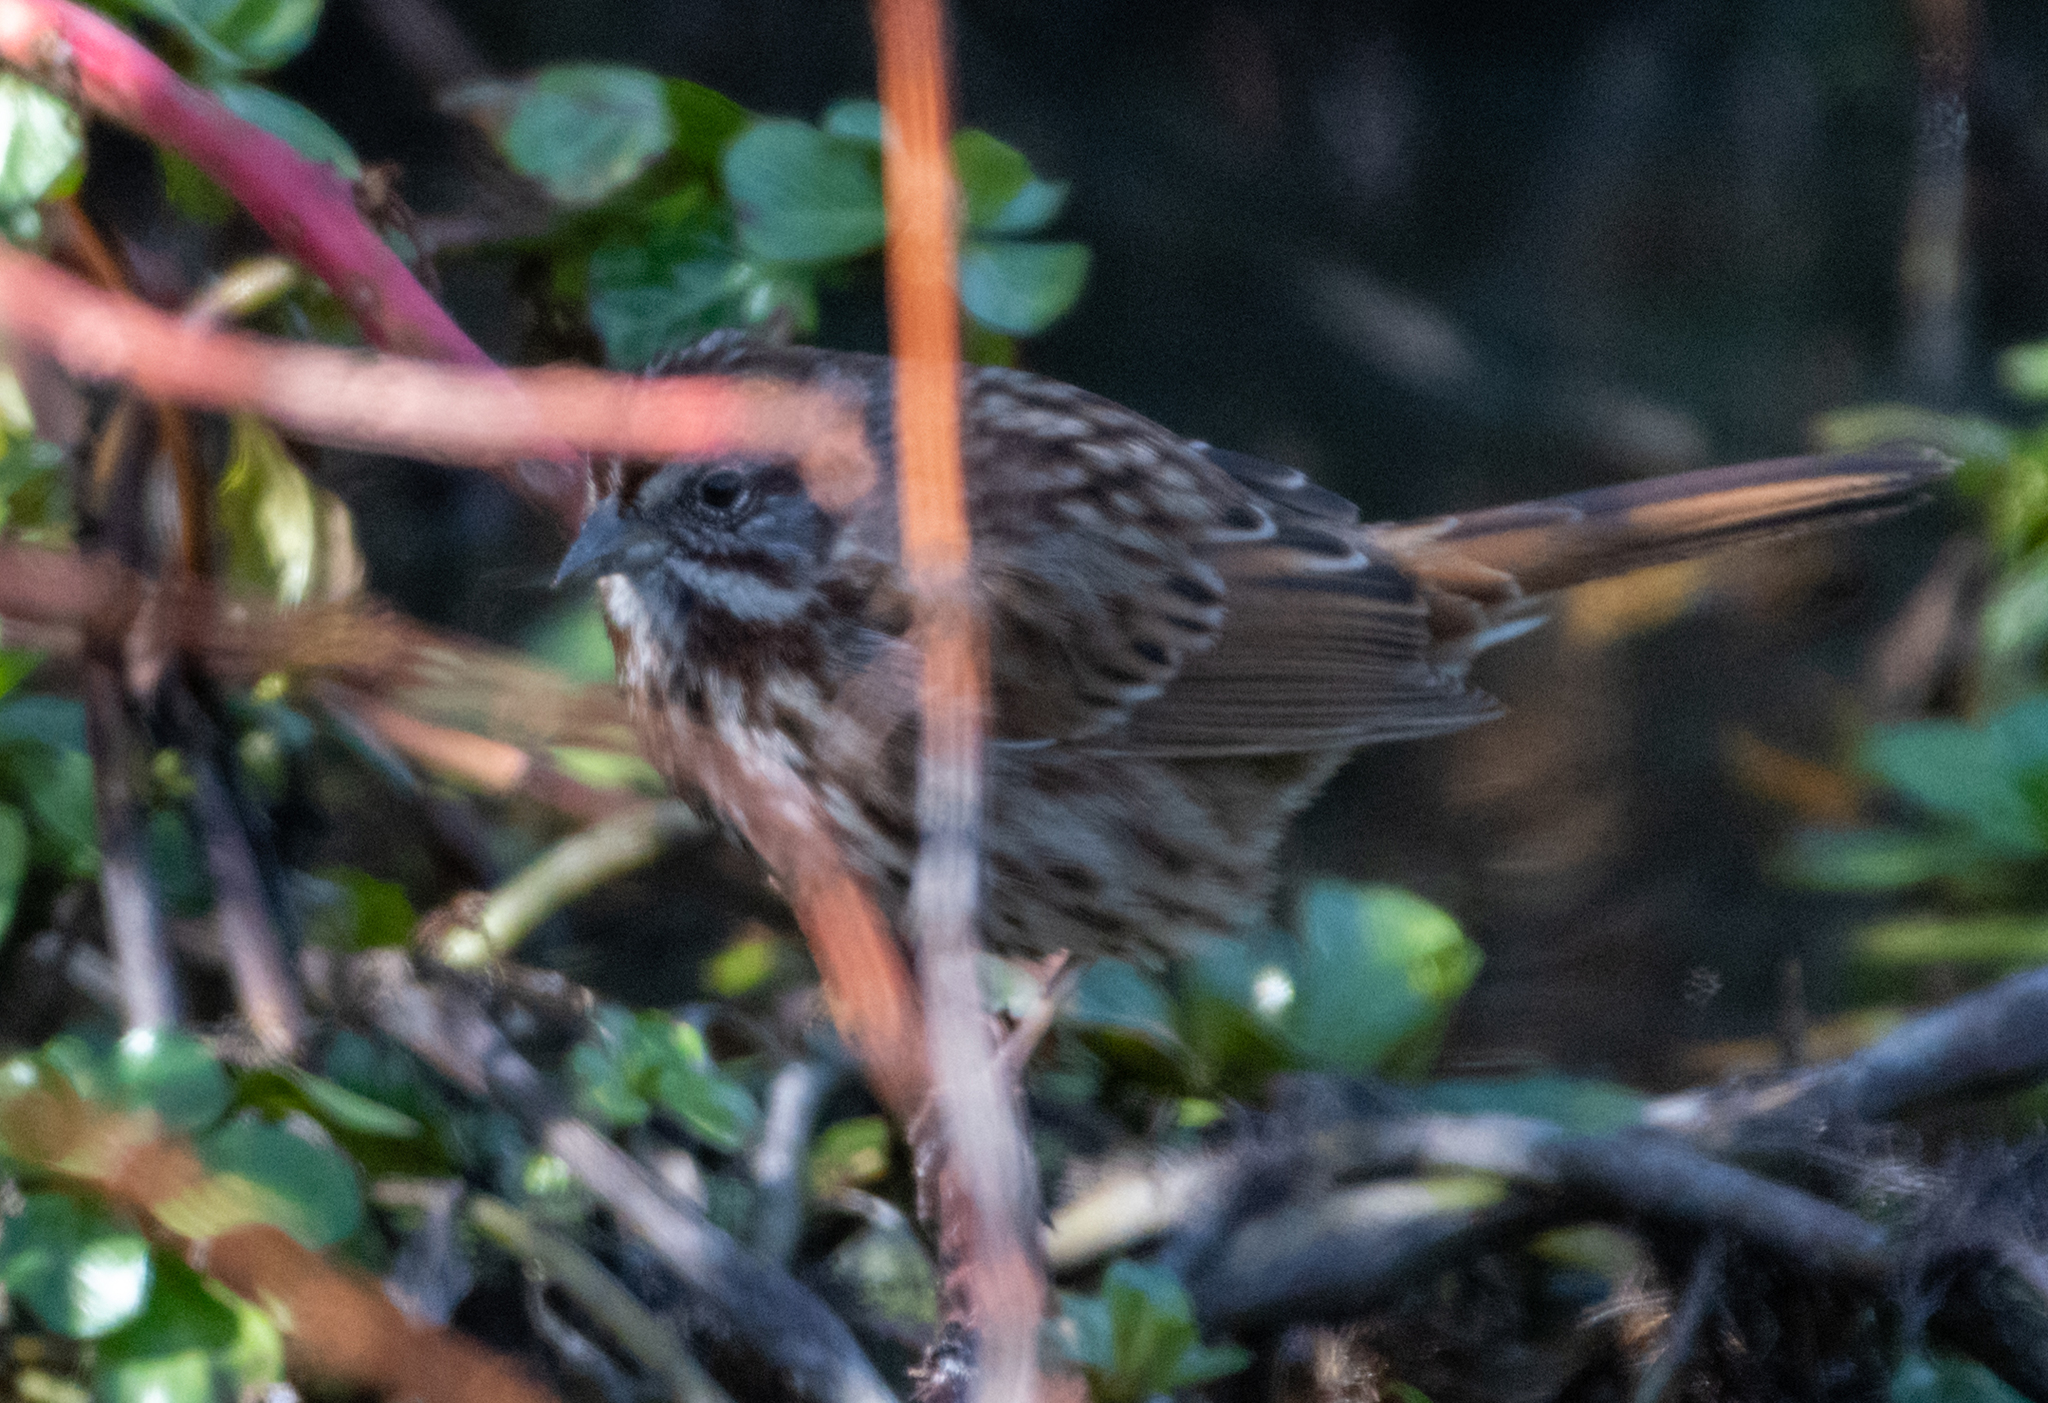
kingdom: Animalia
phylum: Chordata
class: Aves
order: Passeriformes
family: Passerellidae
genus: Melospiza
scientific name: Melospiza melodia
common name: Song sparrow
